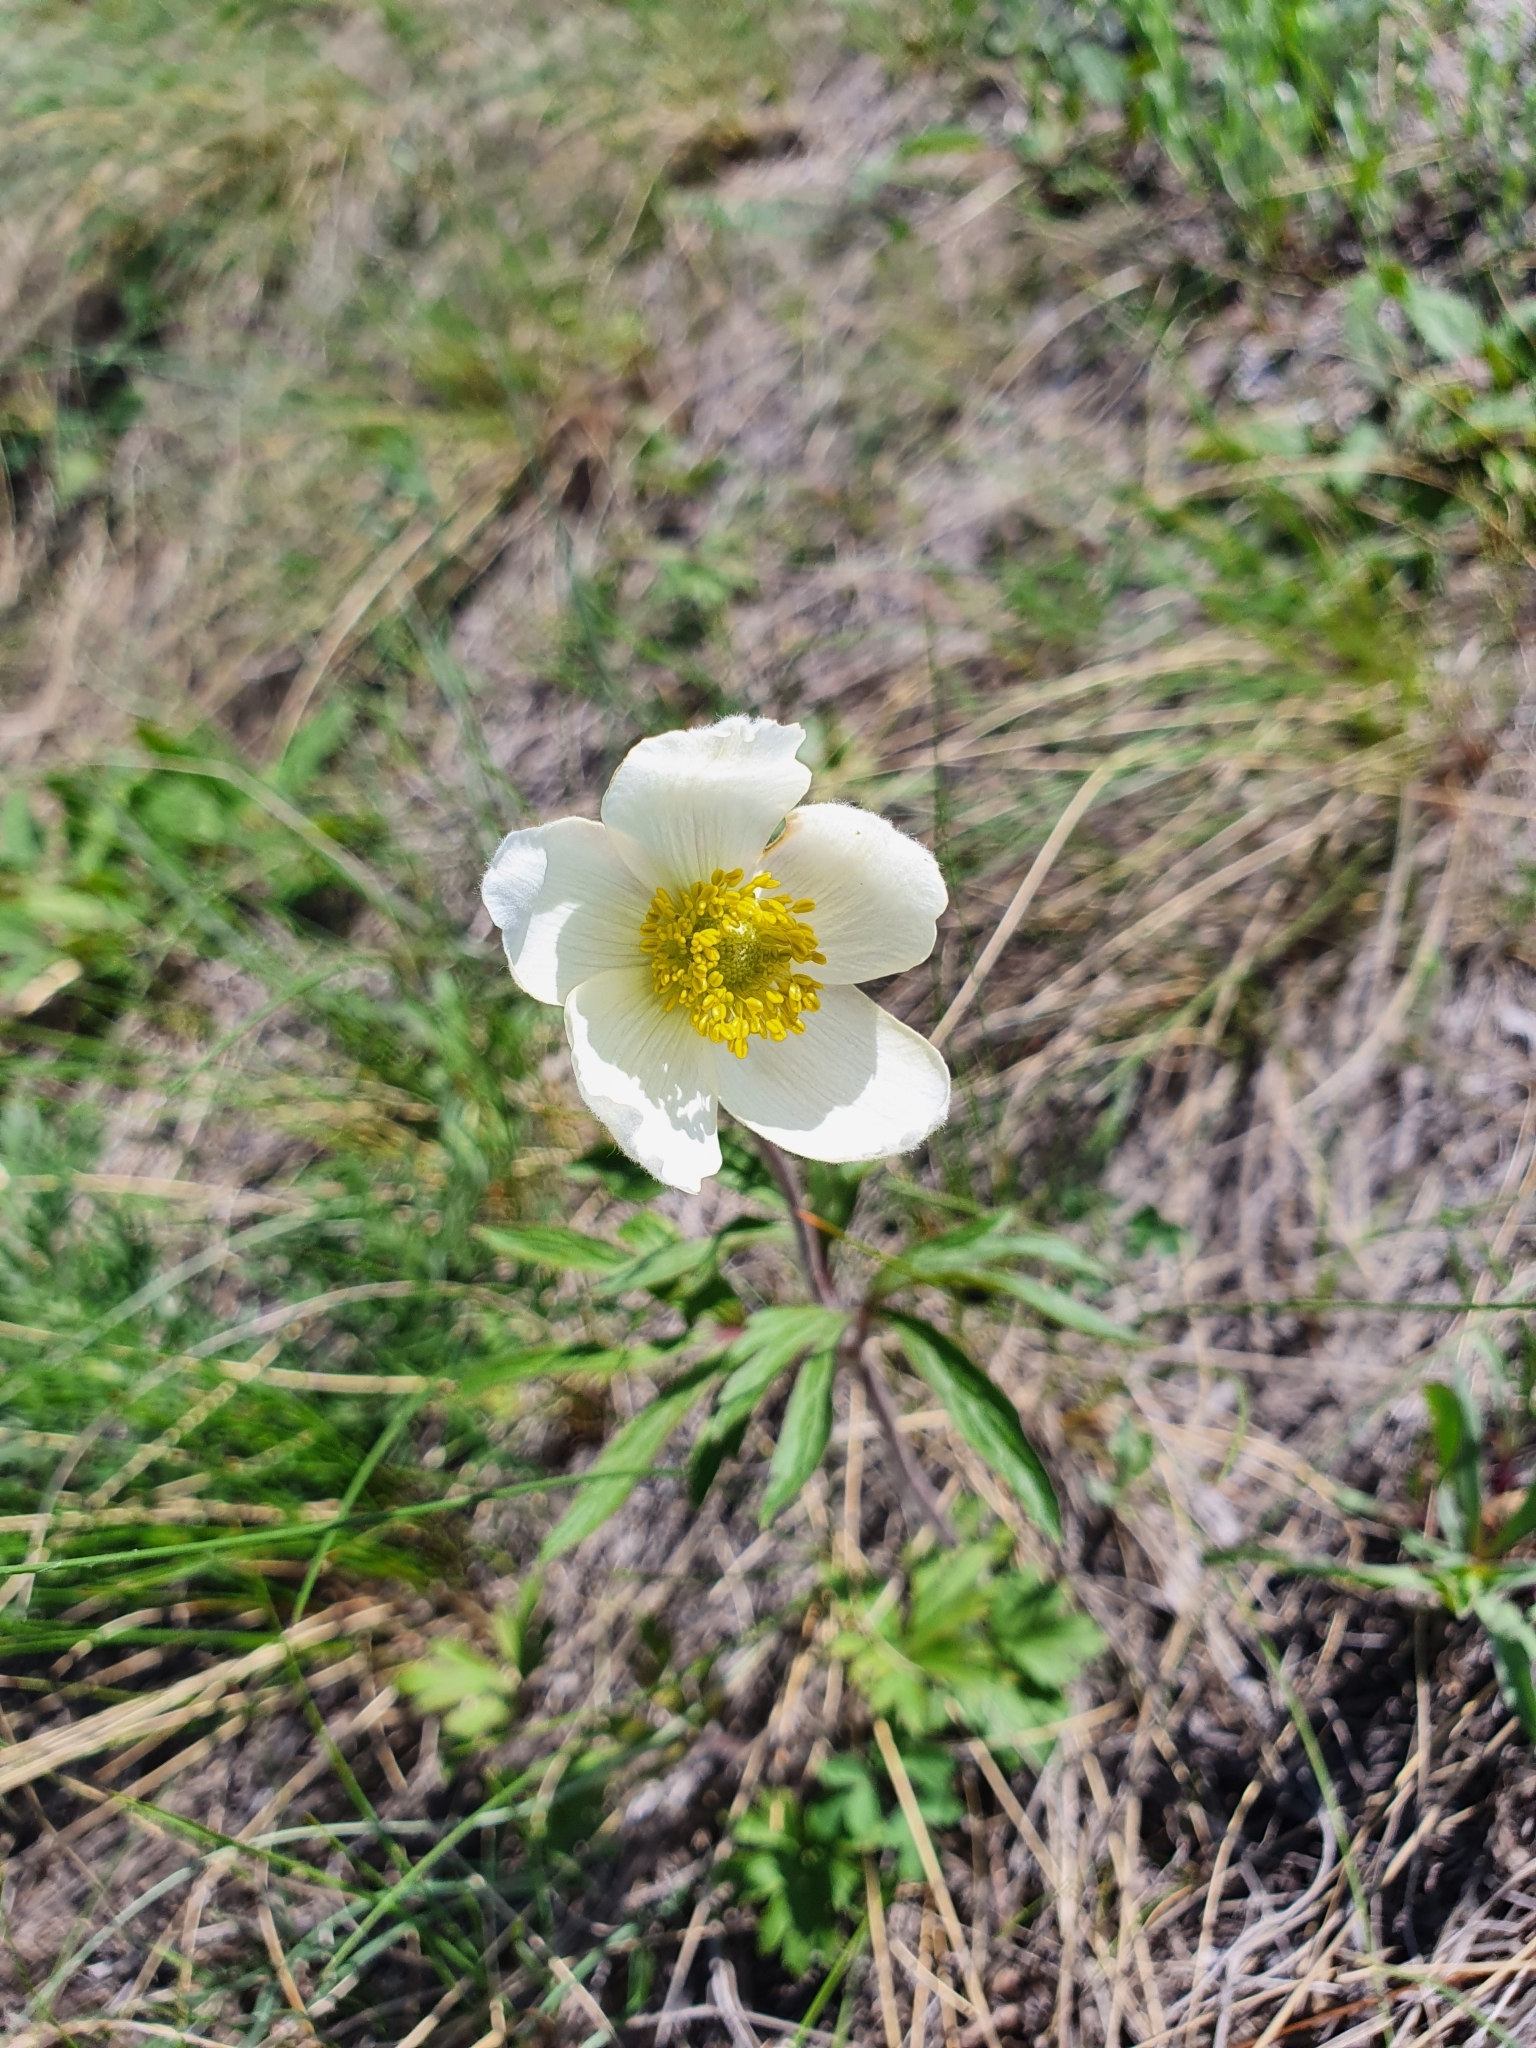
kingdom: Plantae
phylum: Tracheophyta
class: Magnoliopsida
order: Ranunculales
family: Ranunculaceae
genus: Anemone
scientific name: Anemone sylvestris
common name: Snowdrop anemone
